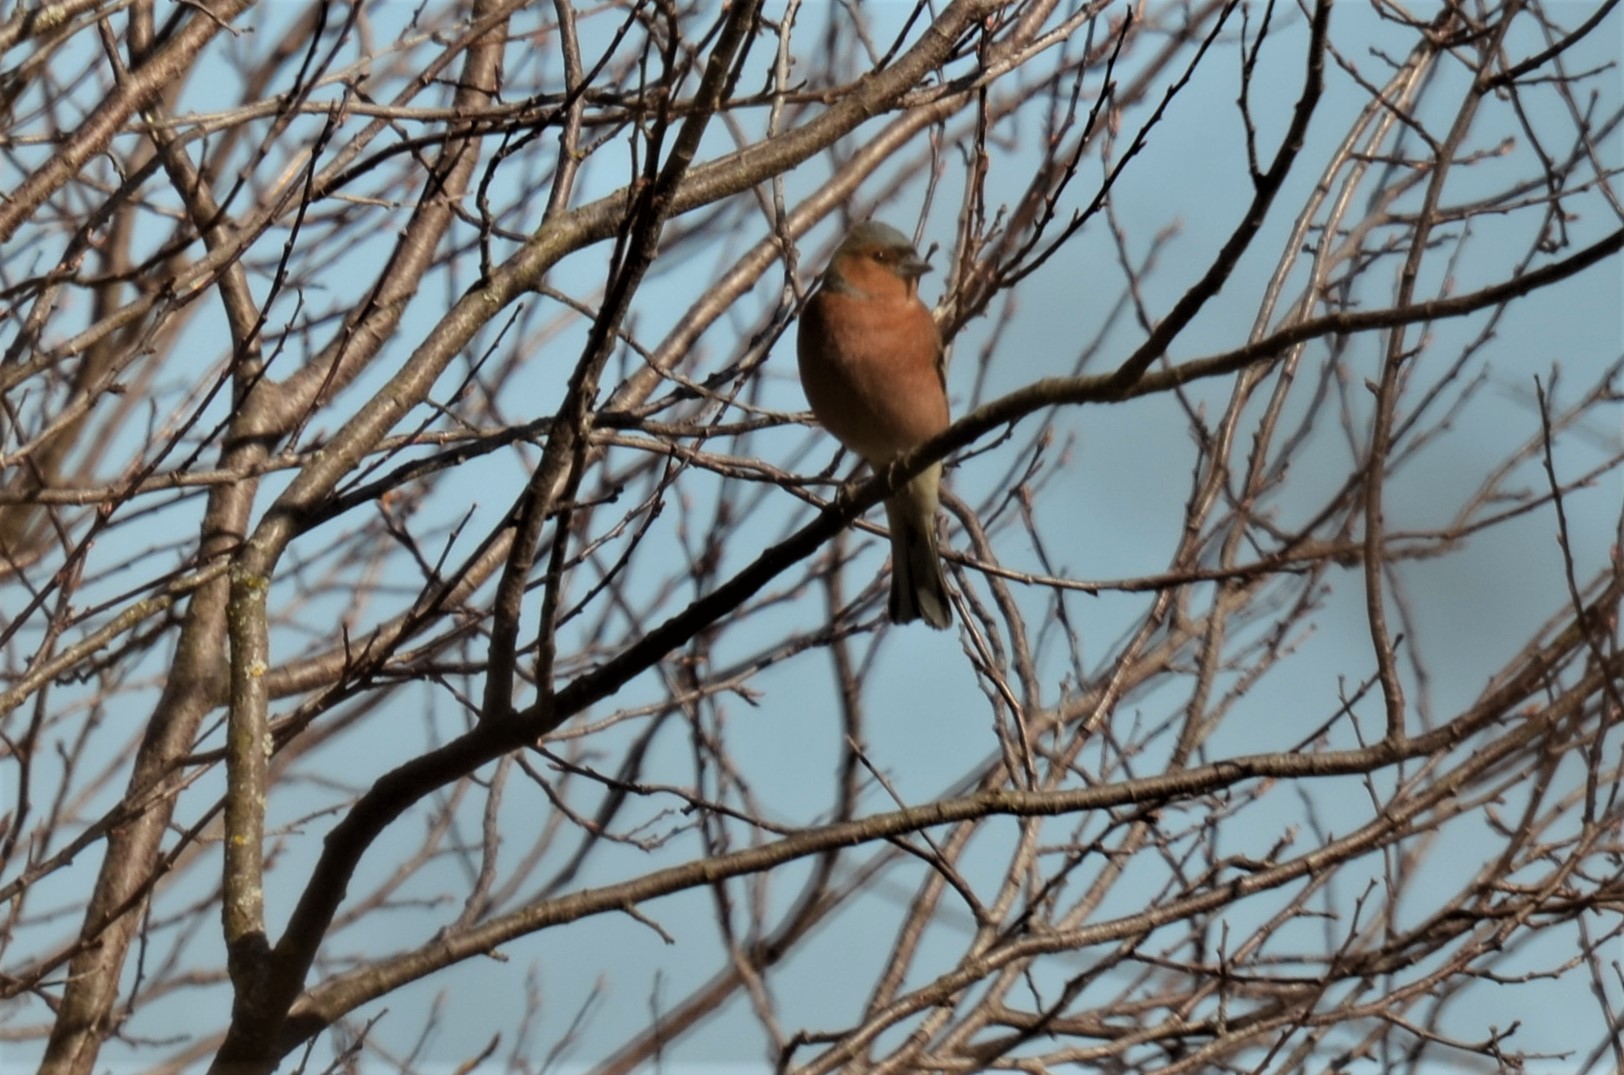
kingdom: Animalia
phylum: Chordata
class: Aves
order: Passeriformes
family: Fringillidae
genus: Fringilla
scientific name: Fringilla coelebs
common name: Common chaffinch
